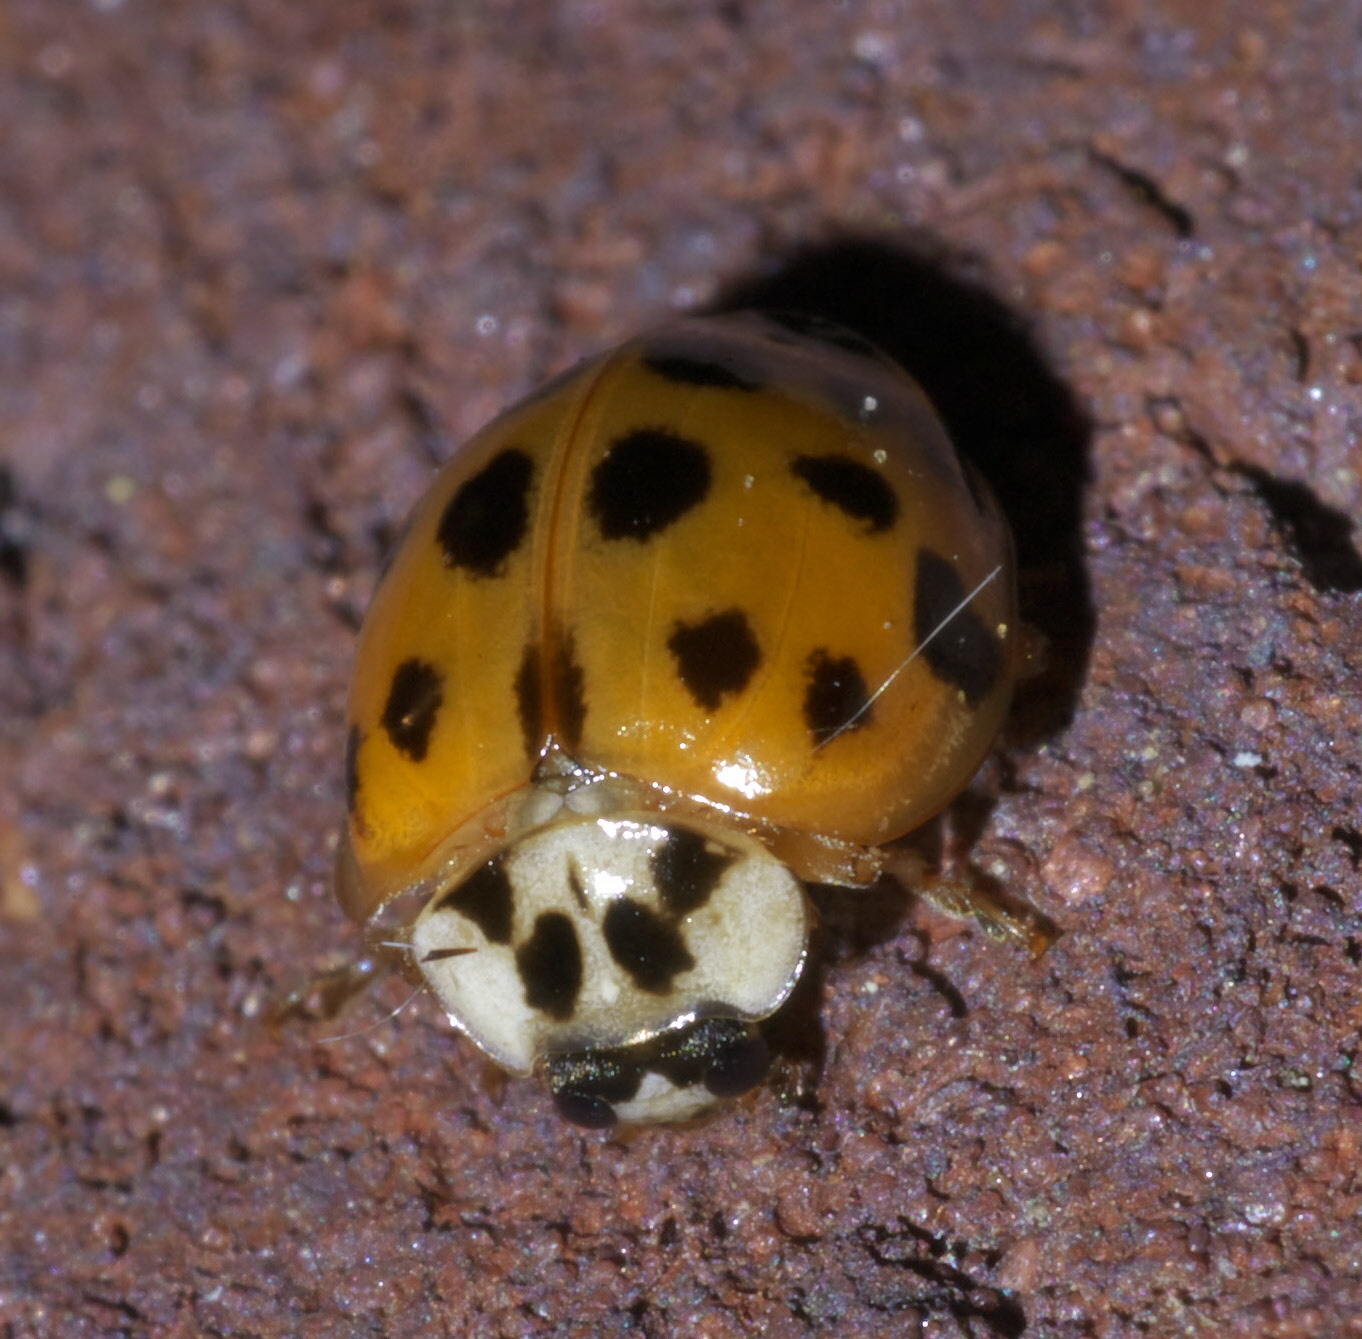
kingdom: Animalia
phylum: Arthropoda
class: Insecta
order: Coleoptera
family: Coccinellidae
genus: Harmonia
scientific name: Harmonia axyridis
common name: Harlequin ladybird
